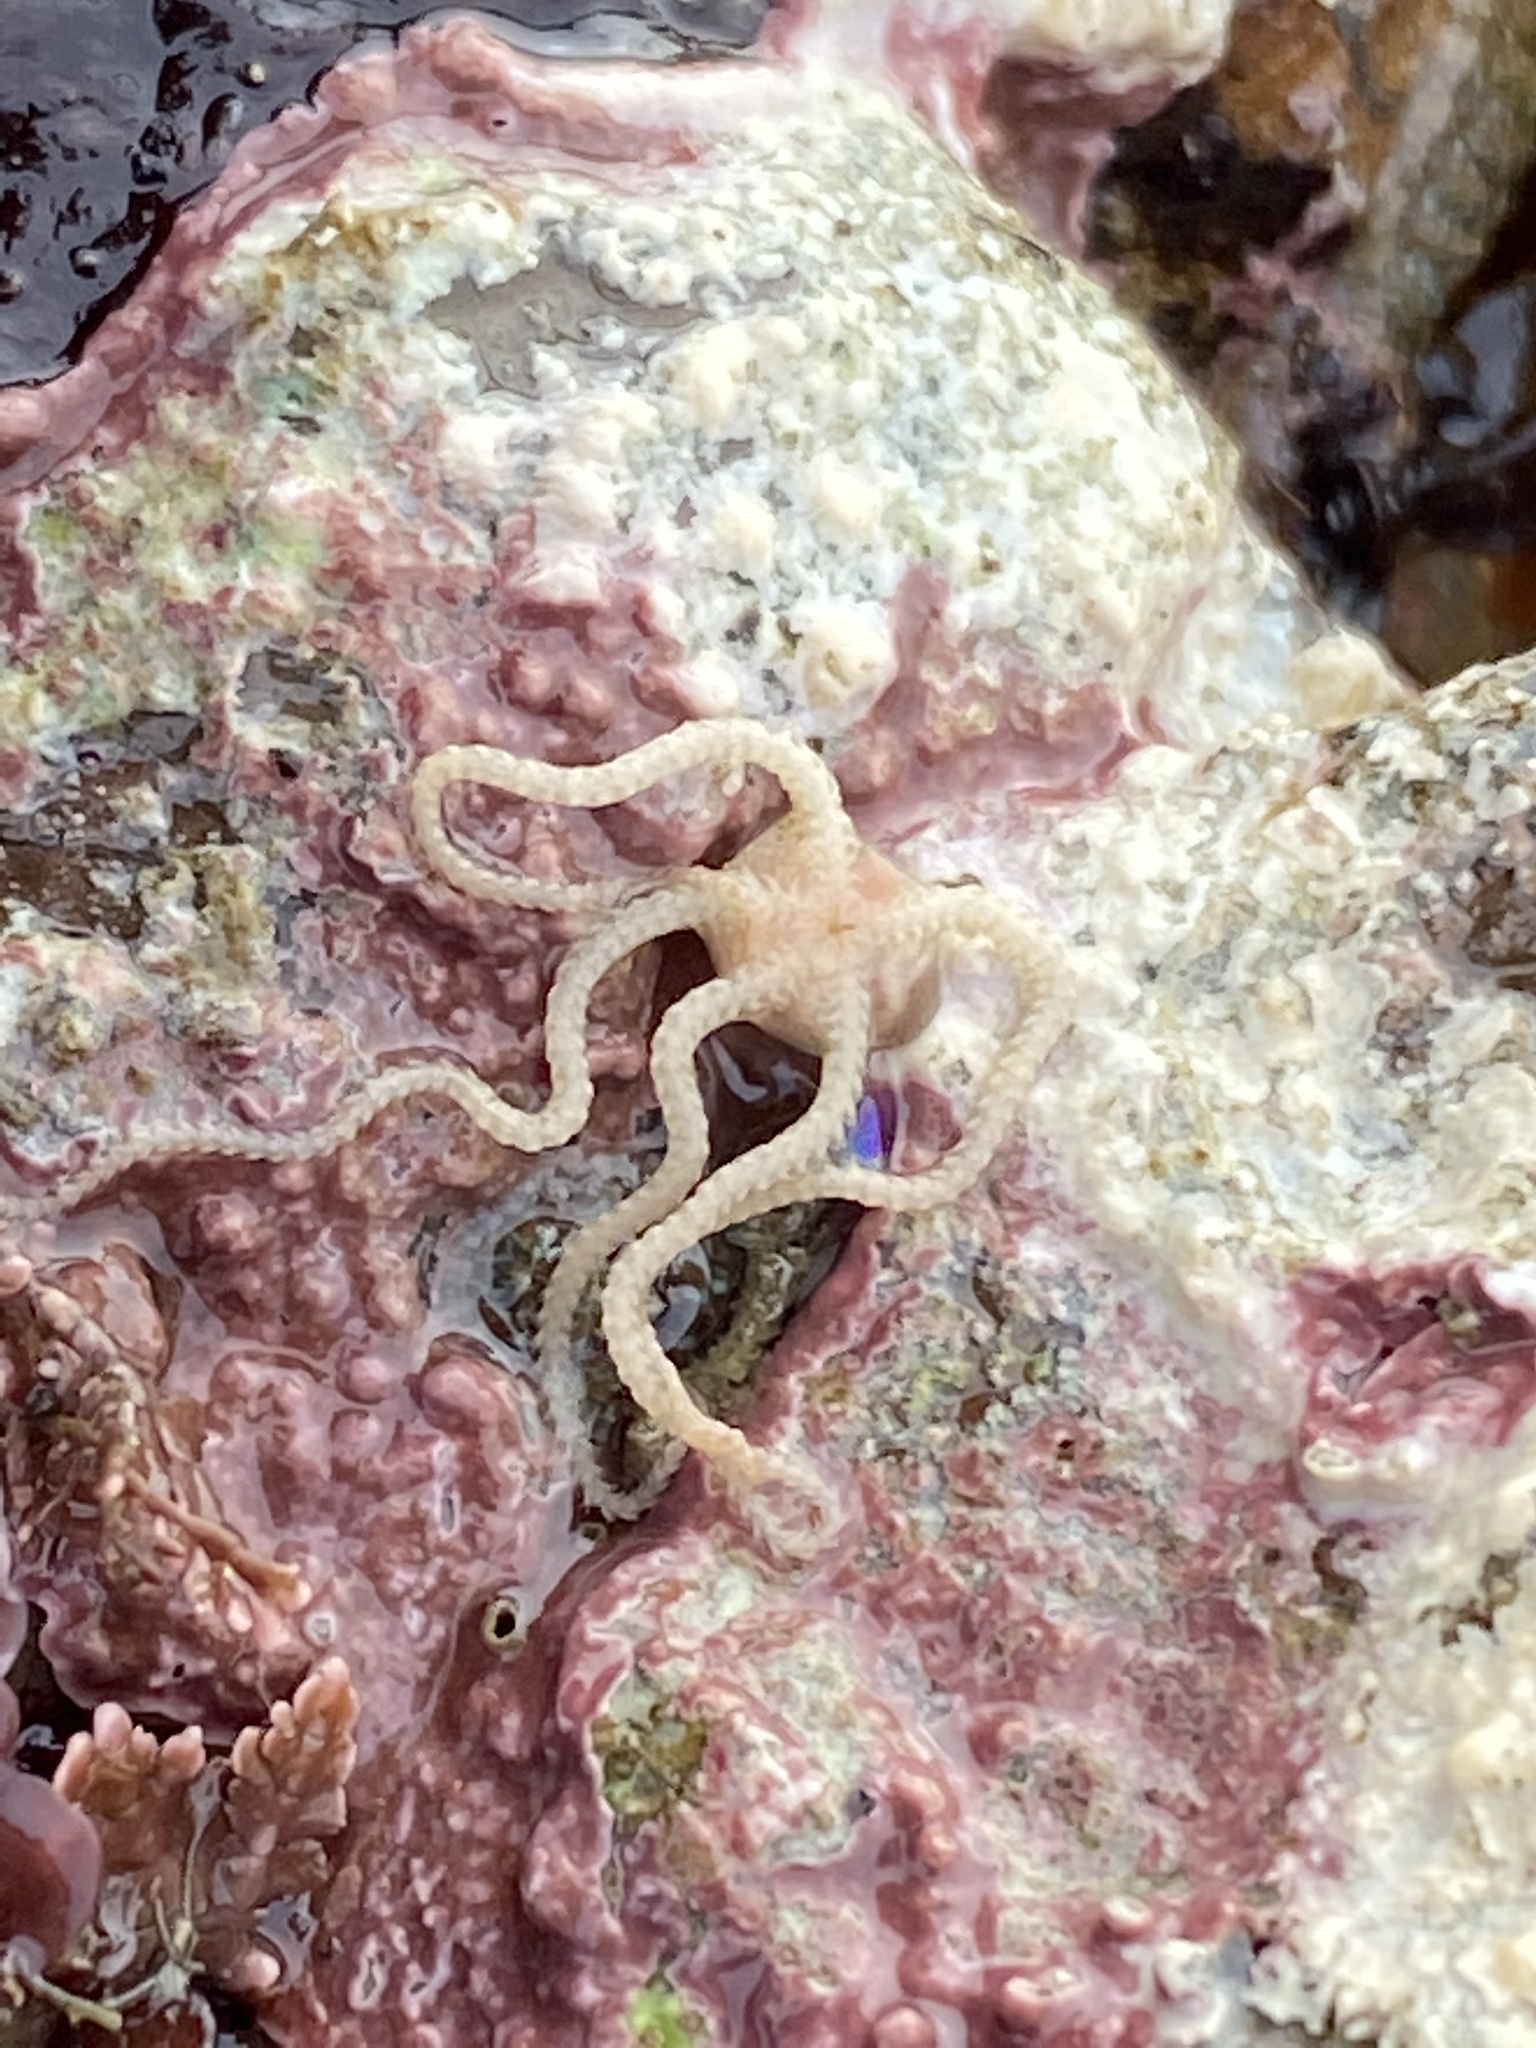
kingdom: Animalia
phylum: Echinodermata
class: Ophiuroidea
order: Amphilepidida
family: Amphiuridae
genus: Amphipholis
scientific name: Amphipholis squamata
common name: Brooding snake star
